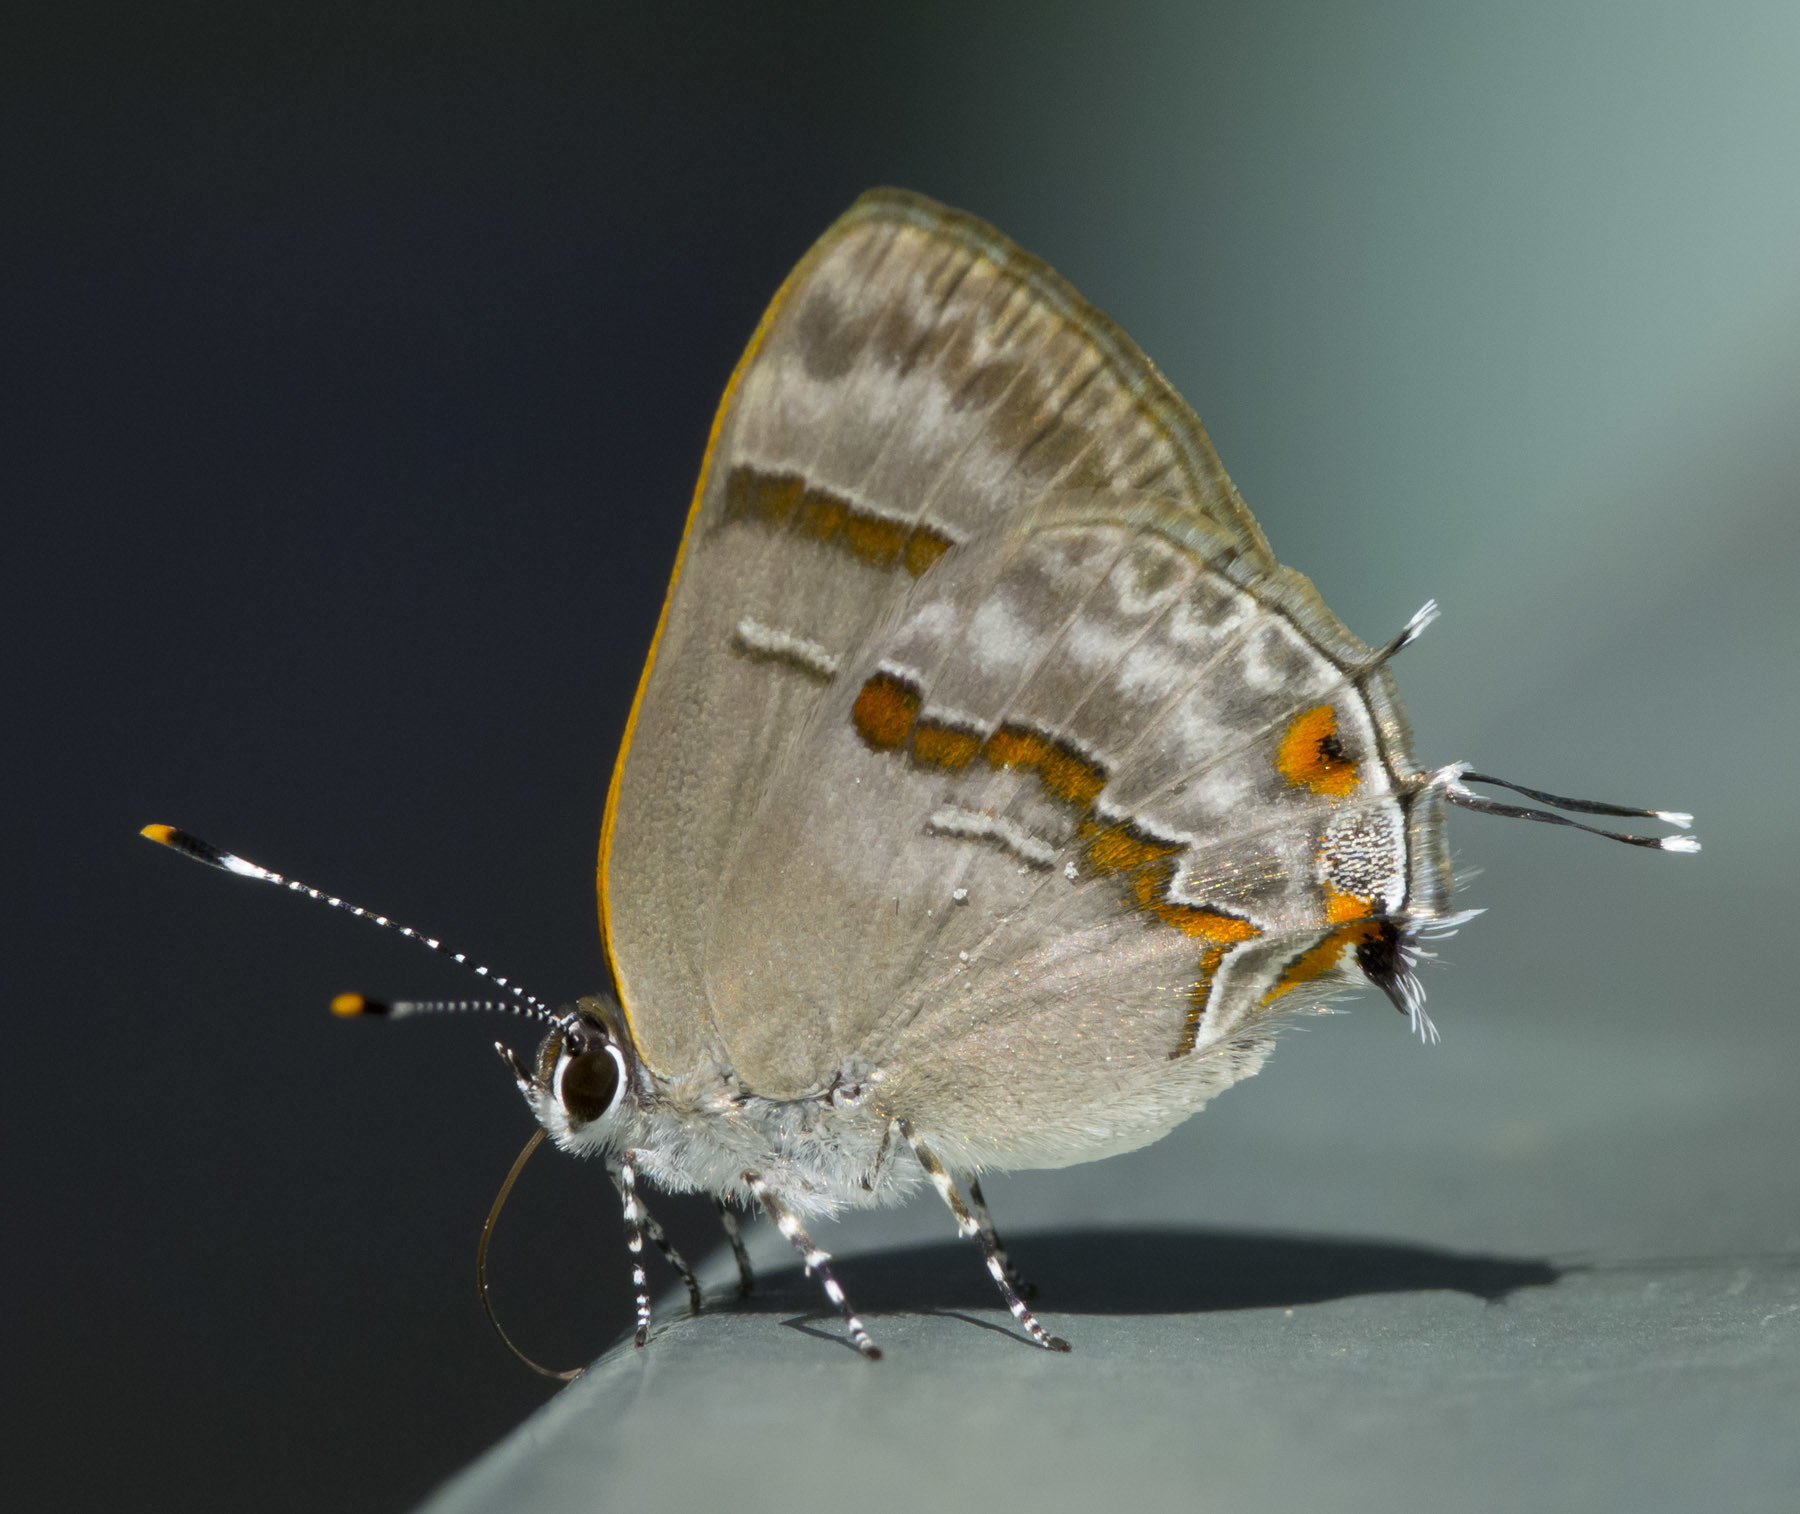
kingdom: Animalia
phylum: Arthropoda
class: Insecta
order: Lepidoptera
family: Lycaenidae
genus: Thecla
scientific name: Thecla ecbatana
